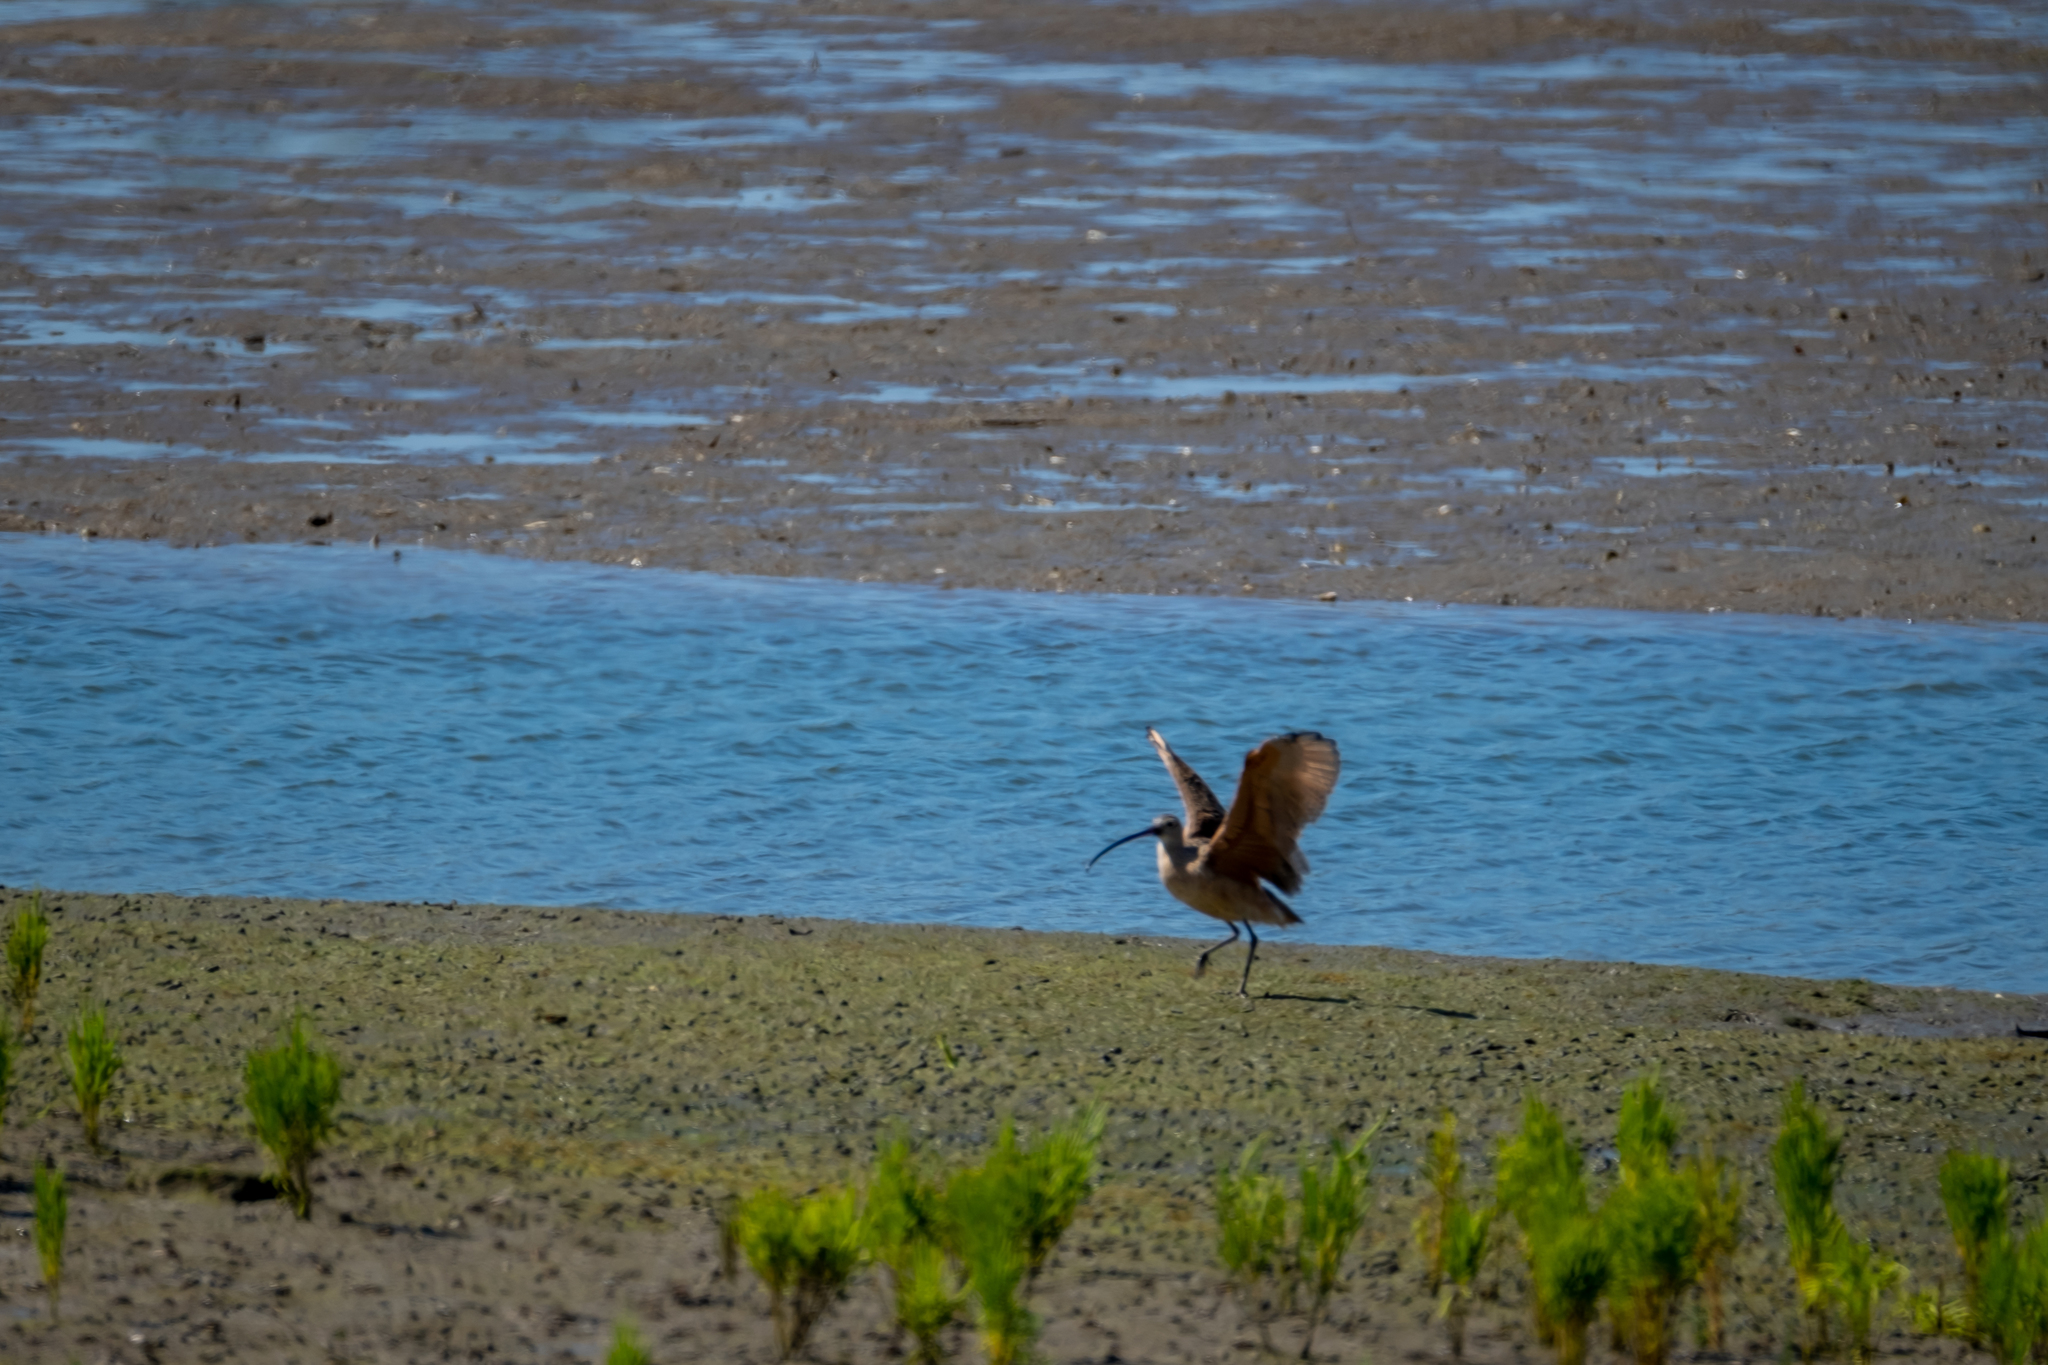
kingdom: Animalia
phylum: Chordata
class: Aves
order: Charadriiformes
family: Scolopacidae
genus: Numenius
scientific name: Numenius americanus
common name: Long-billed curlew
